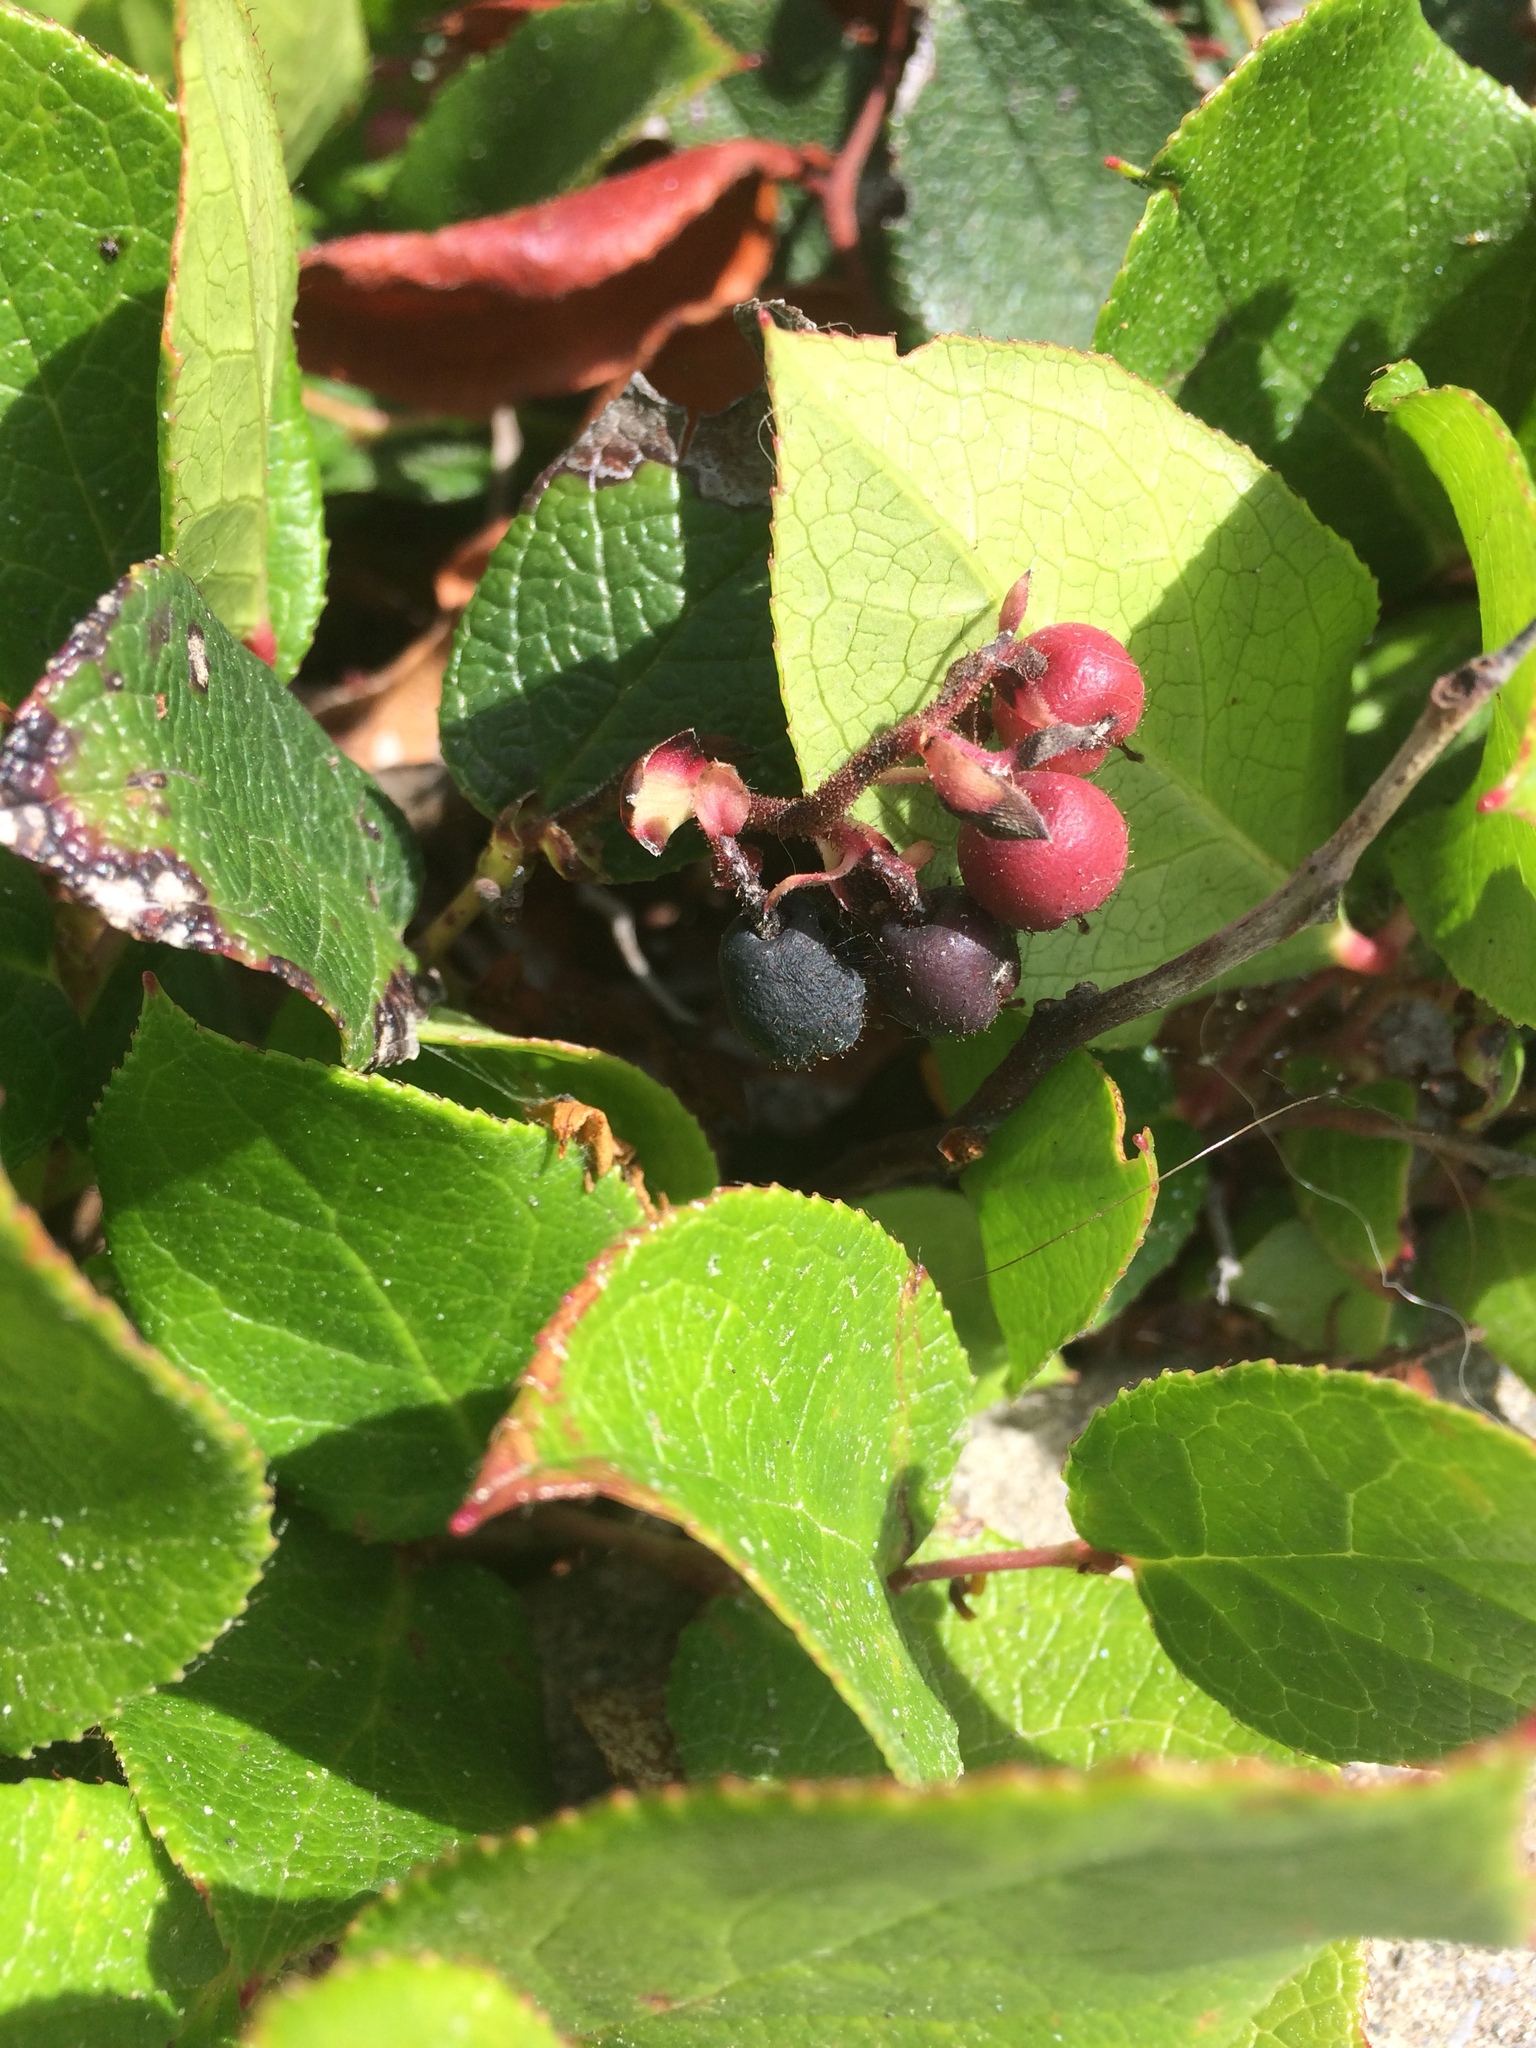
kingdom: Plantae
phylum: Tracheophyta
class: Magnoliopsida
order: Ericales
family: Ericaceae
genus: Gaultheria
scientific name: Gaultheria shallon
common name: Shallon
